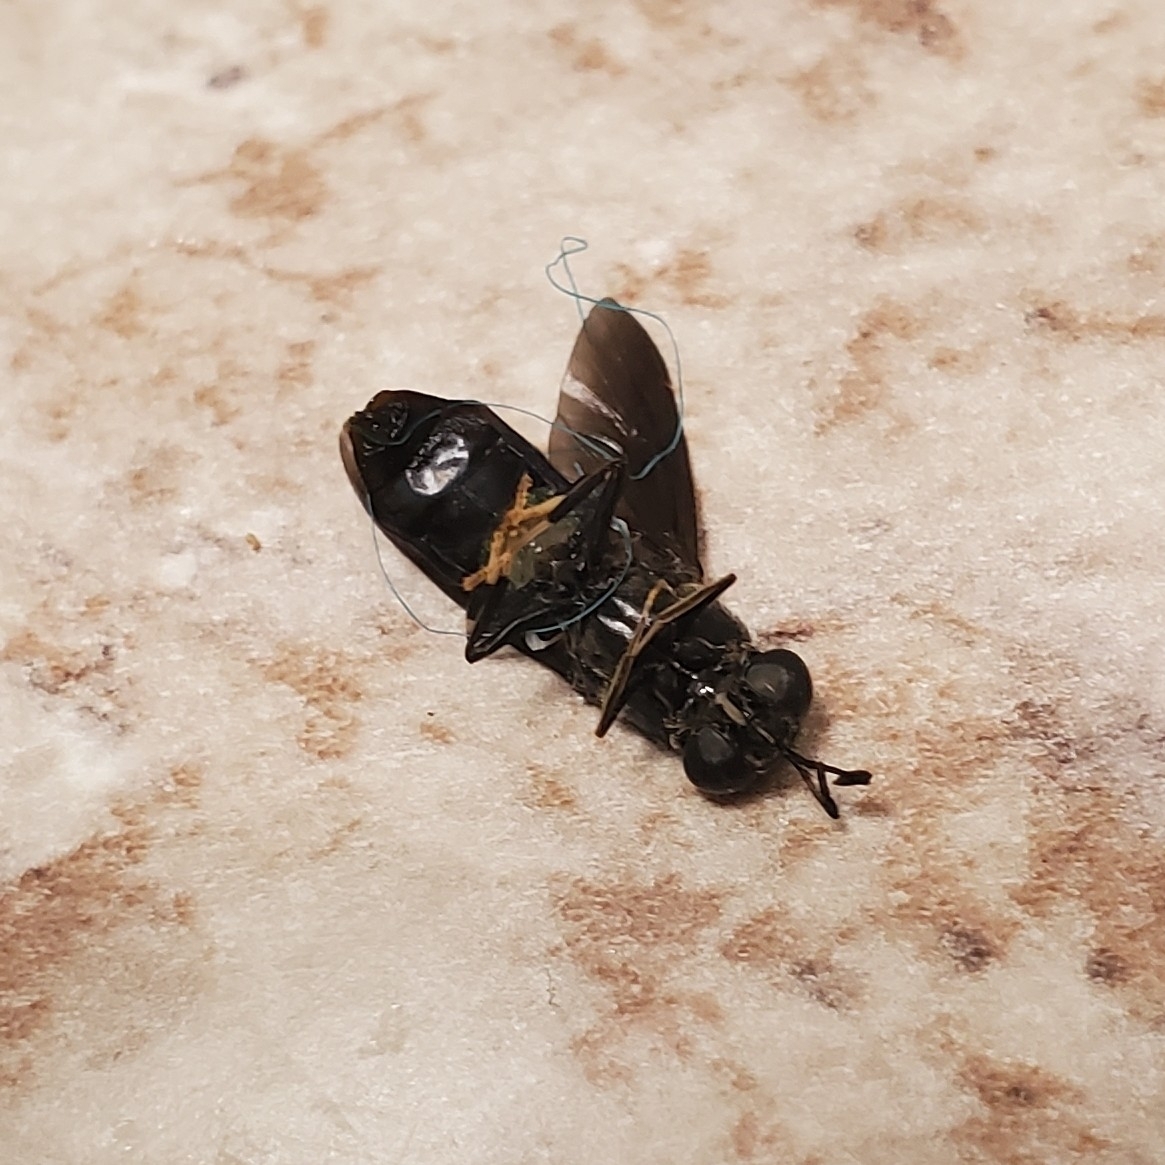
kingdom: Animalia
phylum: Arthropoda
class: Insecta
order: Diptera
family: Stratiomyidae
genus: Hermetia
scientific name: Hermetia illucens
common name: Black soldier fly
